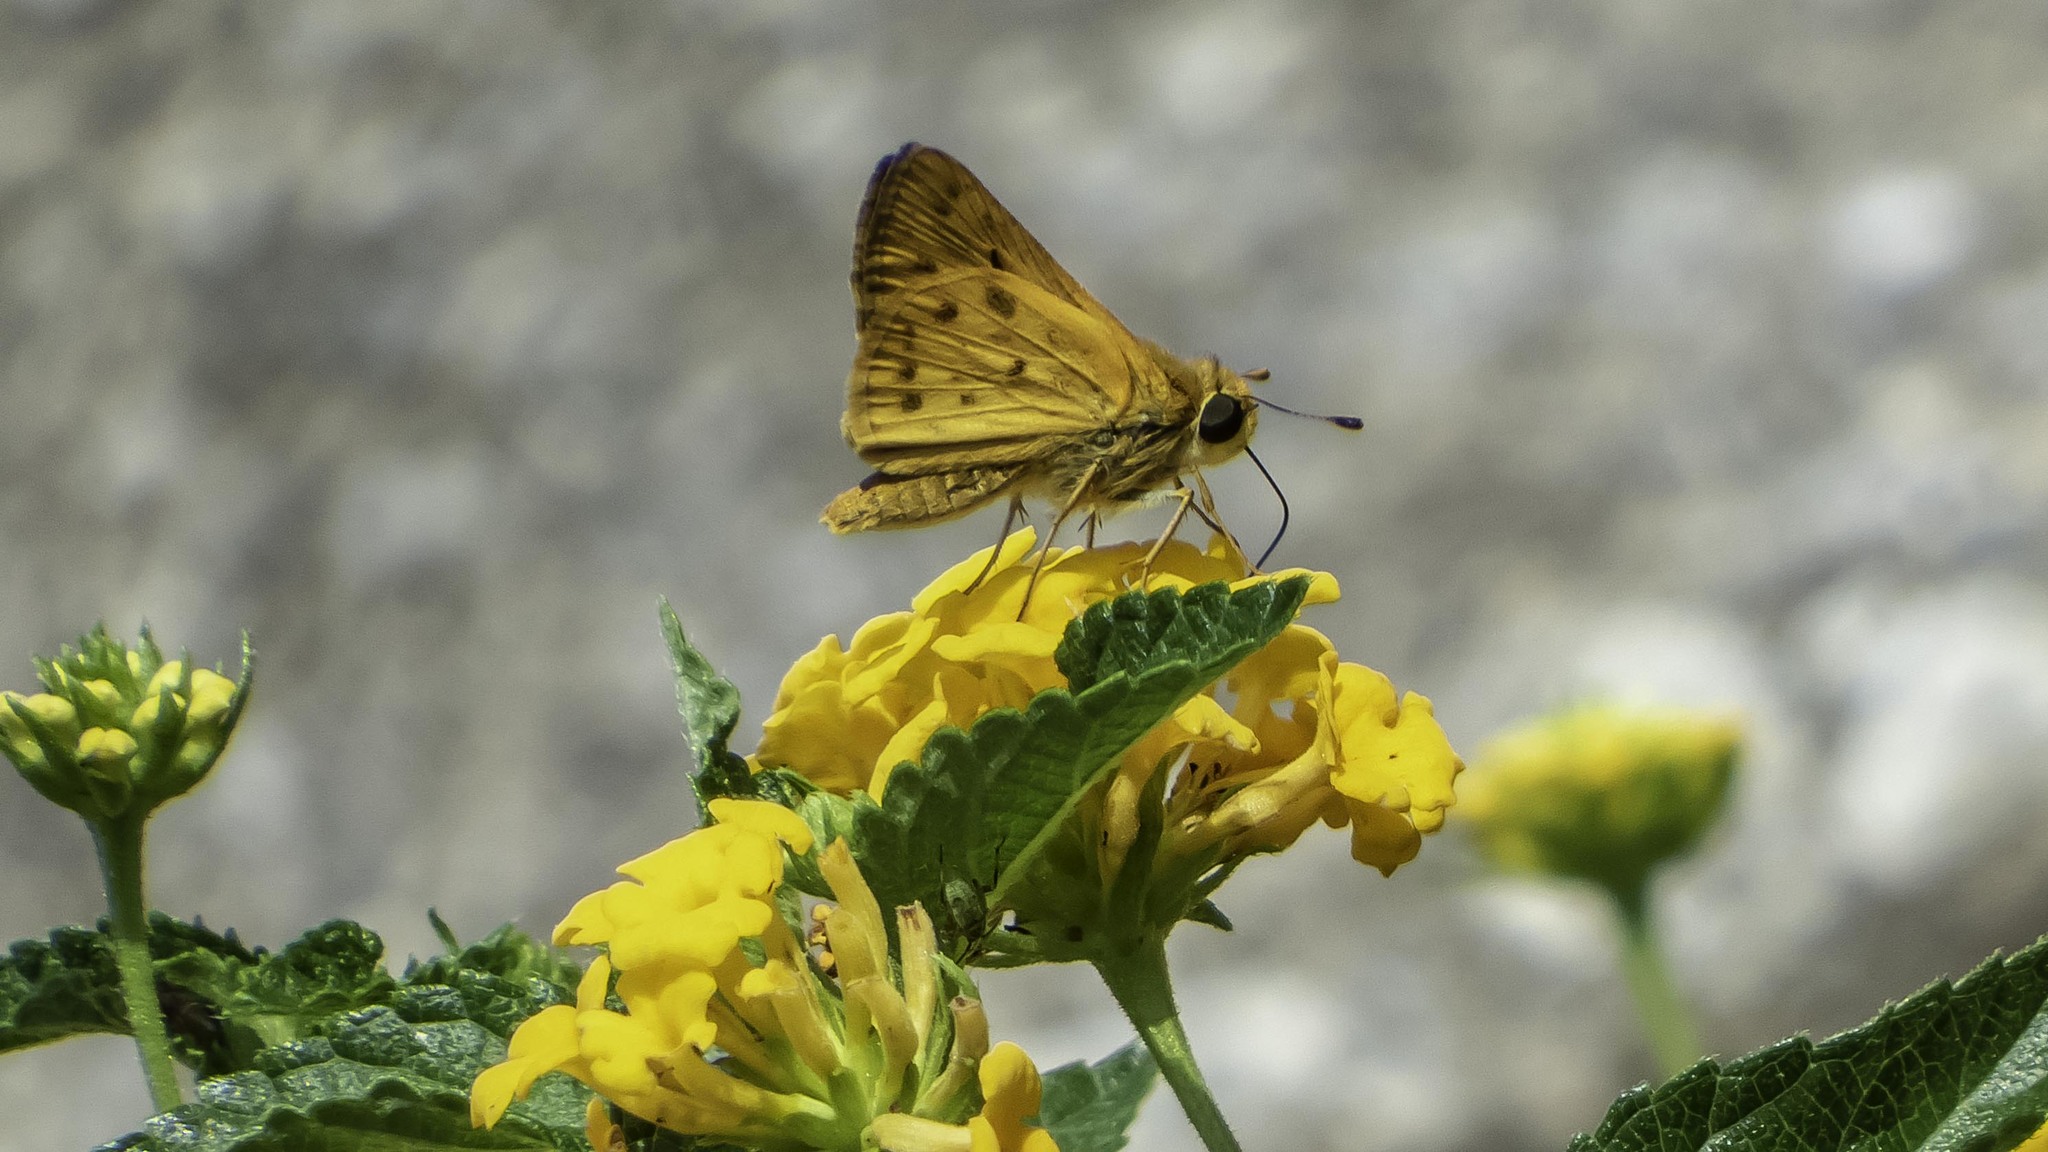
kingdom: Animalia
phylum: Arthropoda
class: Insecta
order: Lepidoptera
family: Hesperiidae
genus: Hylephila
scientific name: Hylephila phyleus
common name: Fiery skipper
